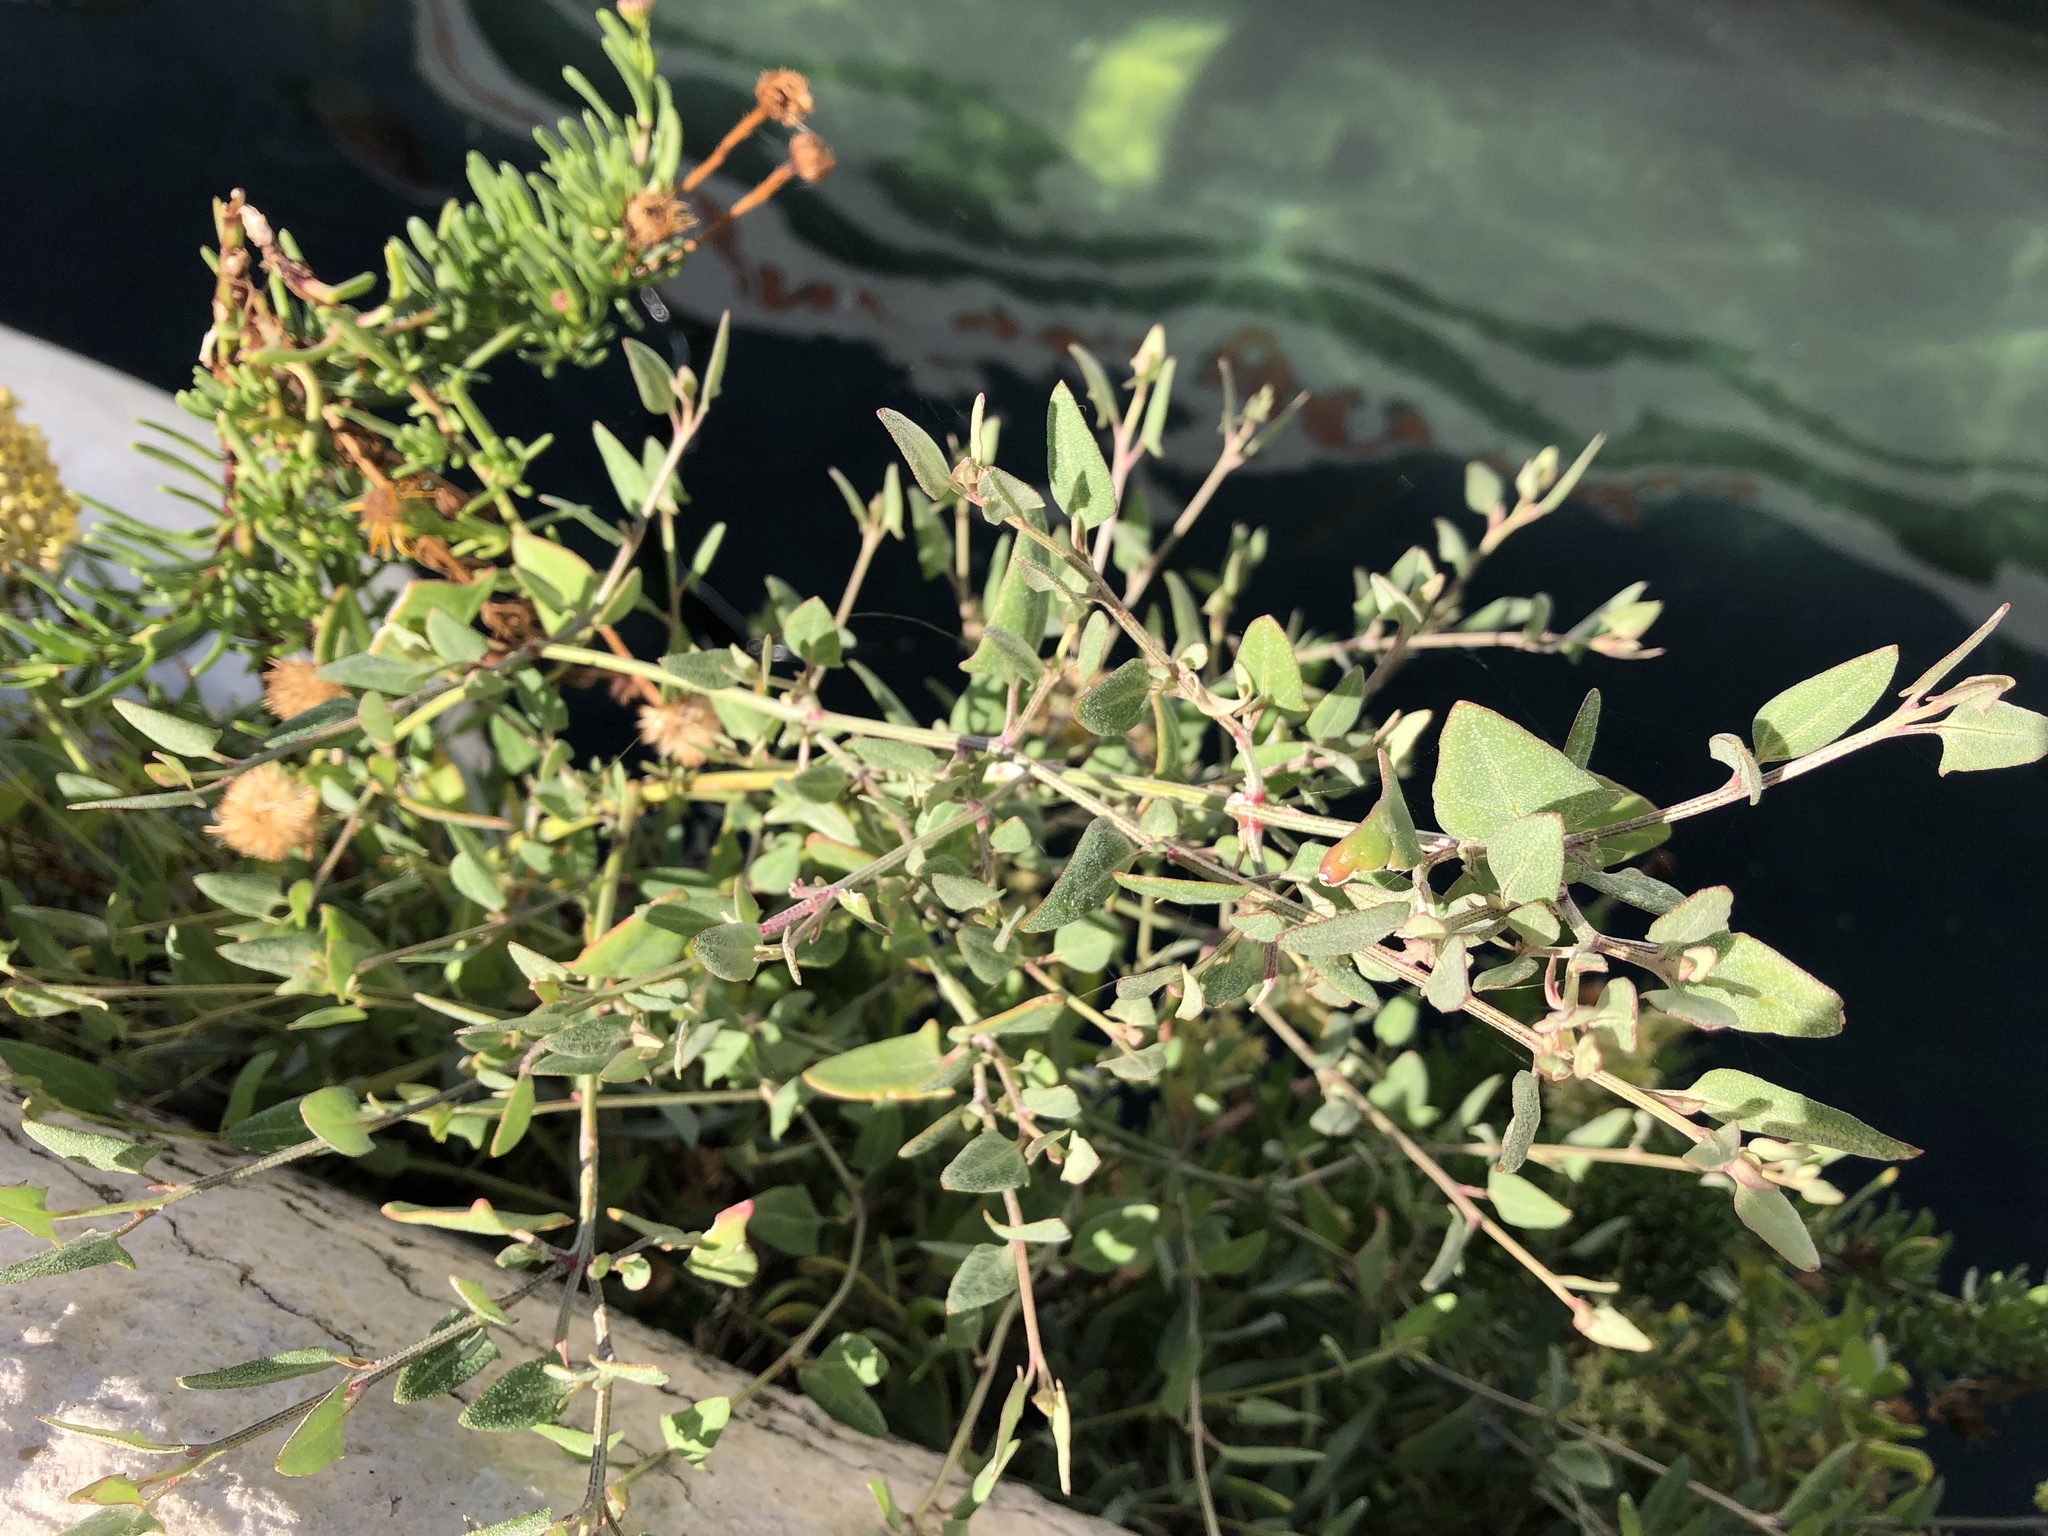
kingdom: Plantae
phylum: Tracheophyta
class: Magnoliopsida
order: Caryophyllales
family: Amaranthaceae
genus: Atriplex
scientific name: Atriplex prostrata
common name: Spear-leaved orache
